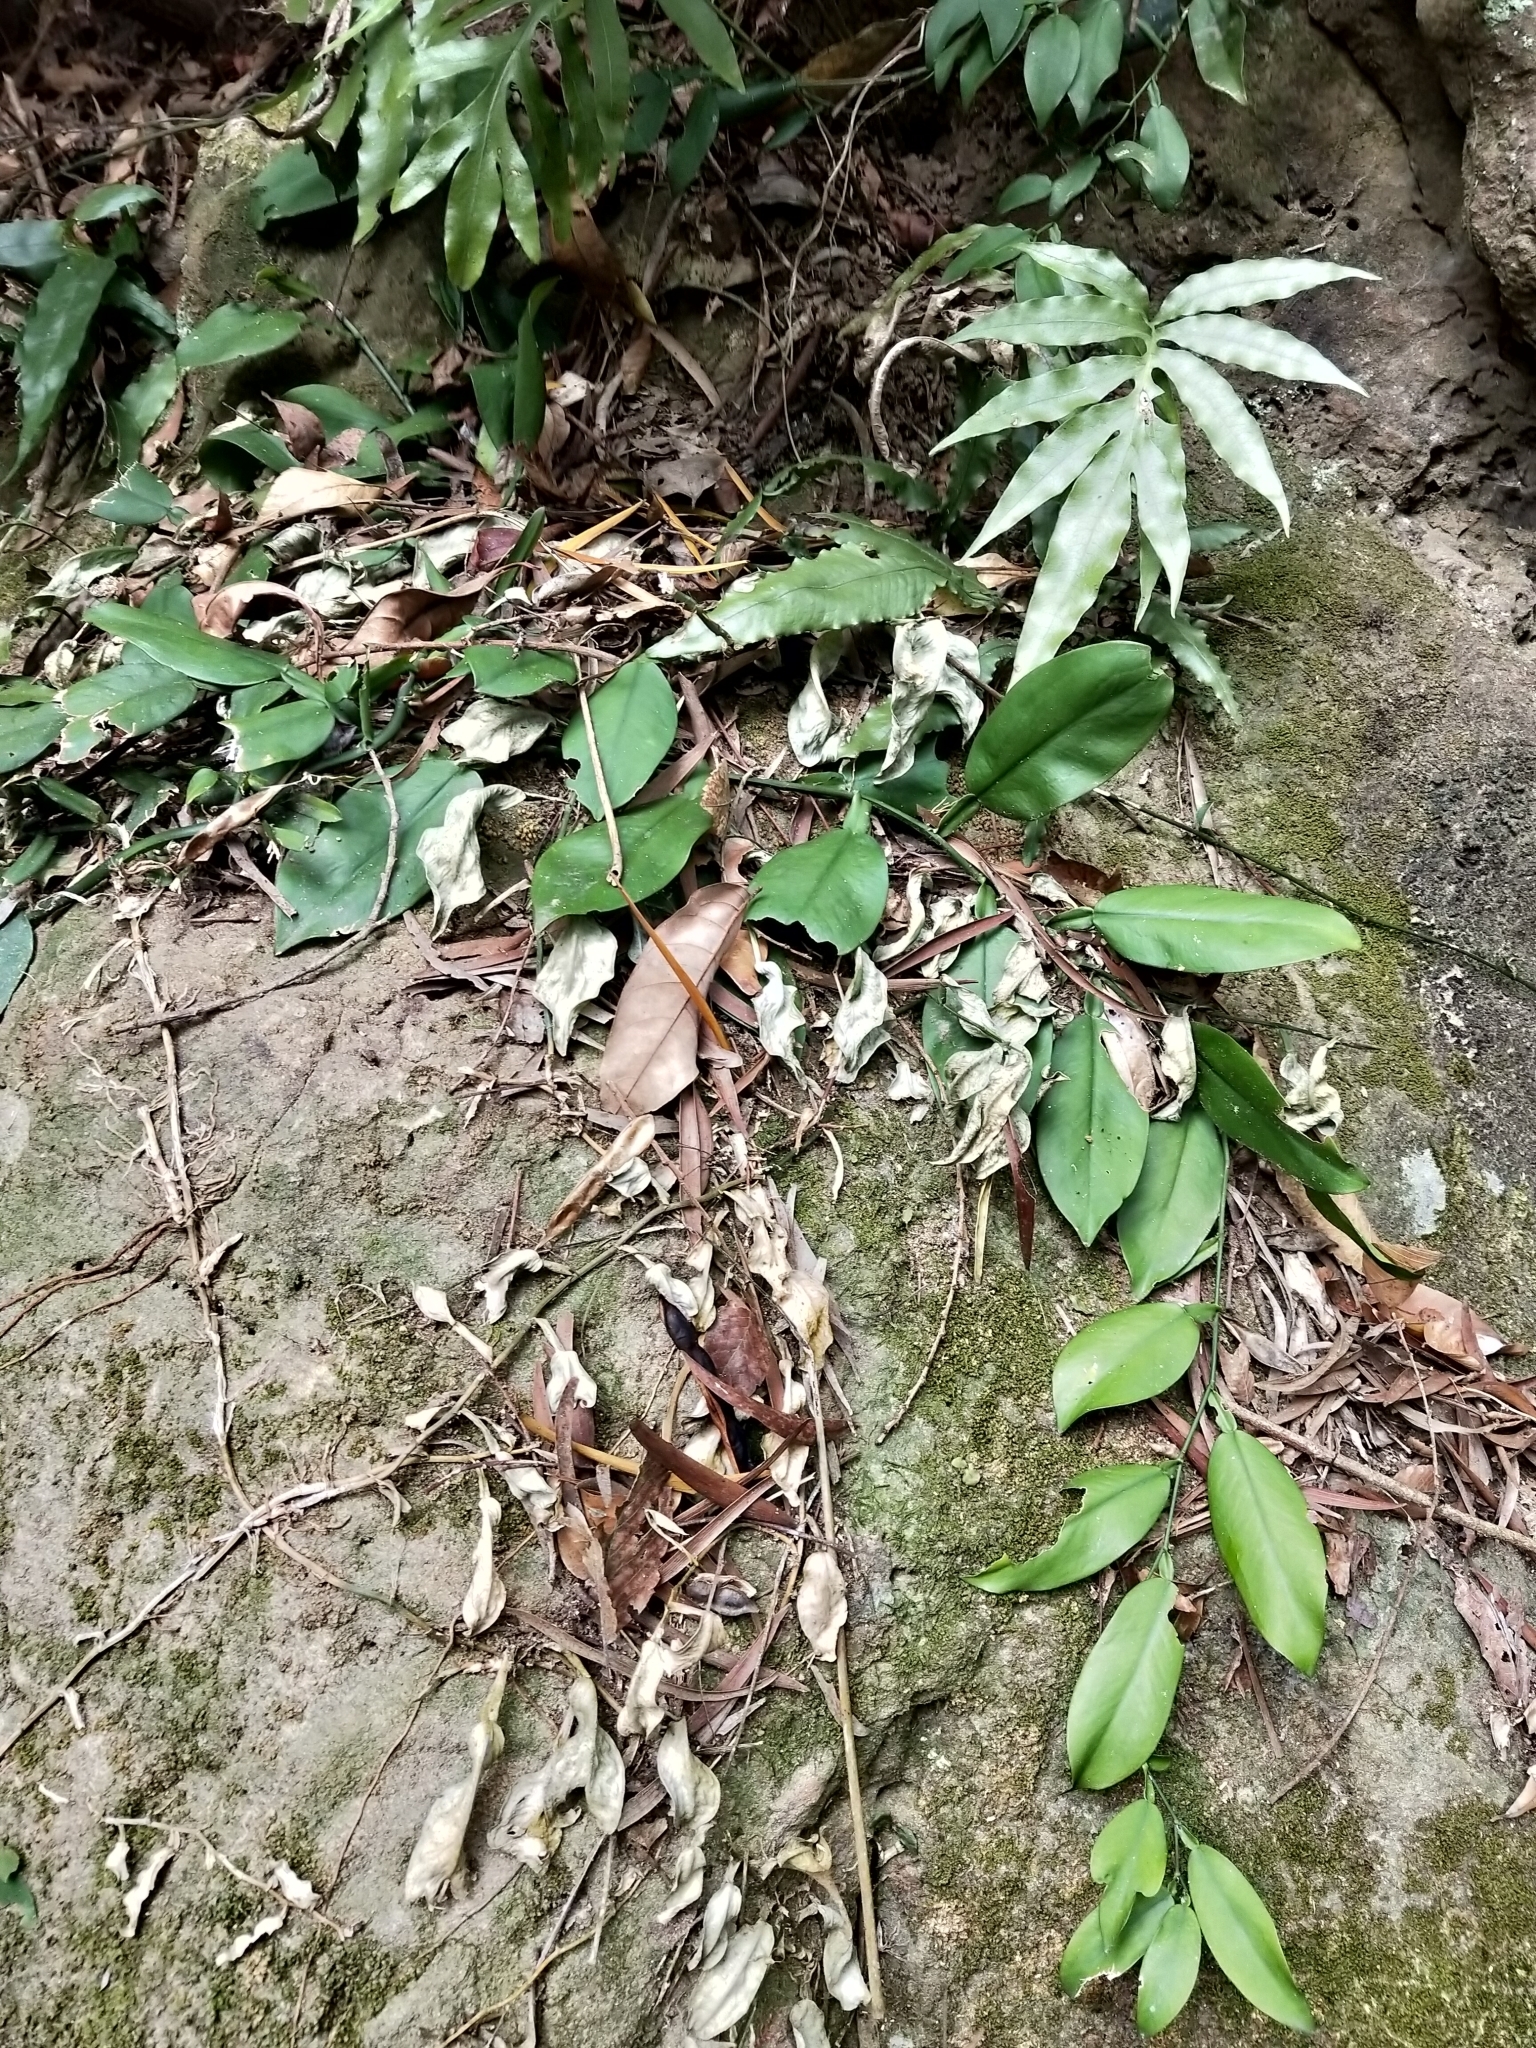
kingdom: Plantae
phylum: Tracheophyta
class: Liliopsida
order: Alismatales
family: Araceae
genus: Pothos
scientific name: Pothos chinensis
